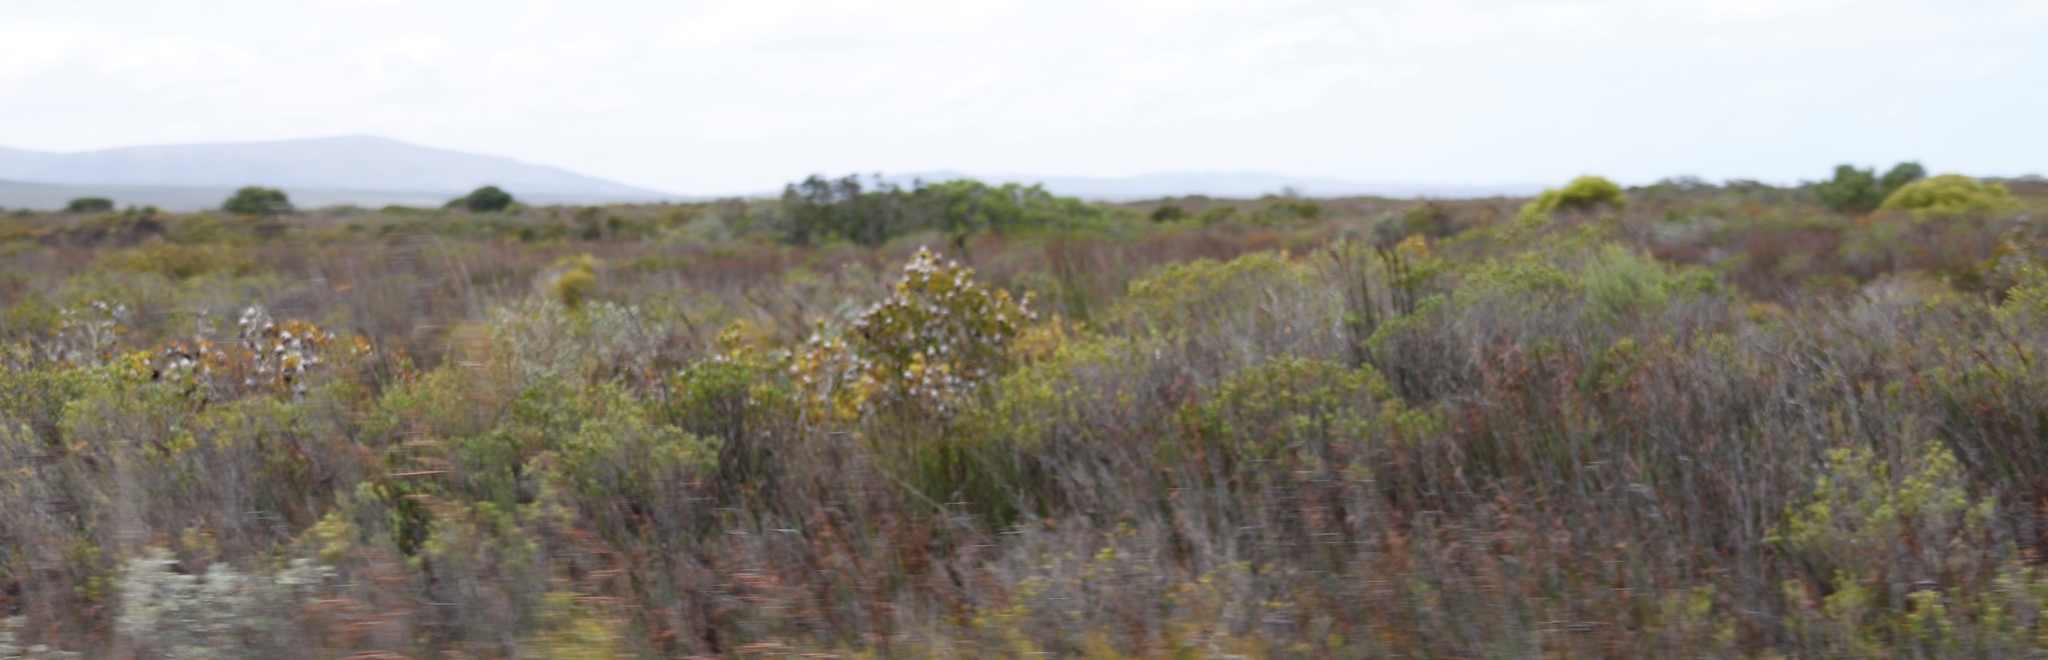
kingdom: Plantae
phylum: Tracheophyta
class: Magnoliopsida
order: Proteales
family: Proteaceae
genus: Leucadendron
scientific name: Leucadendron muirii
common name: Silver-ball conebush
